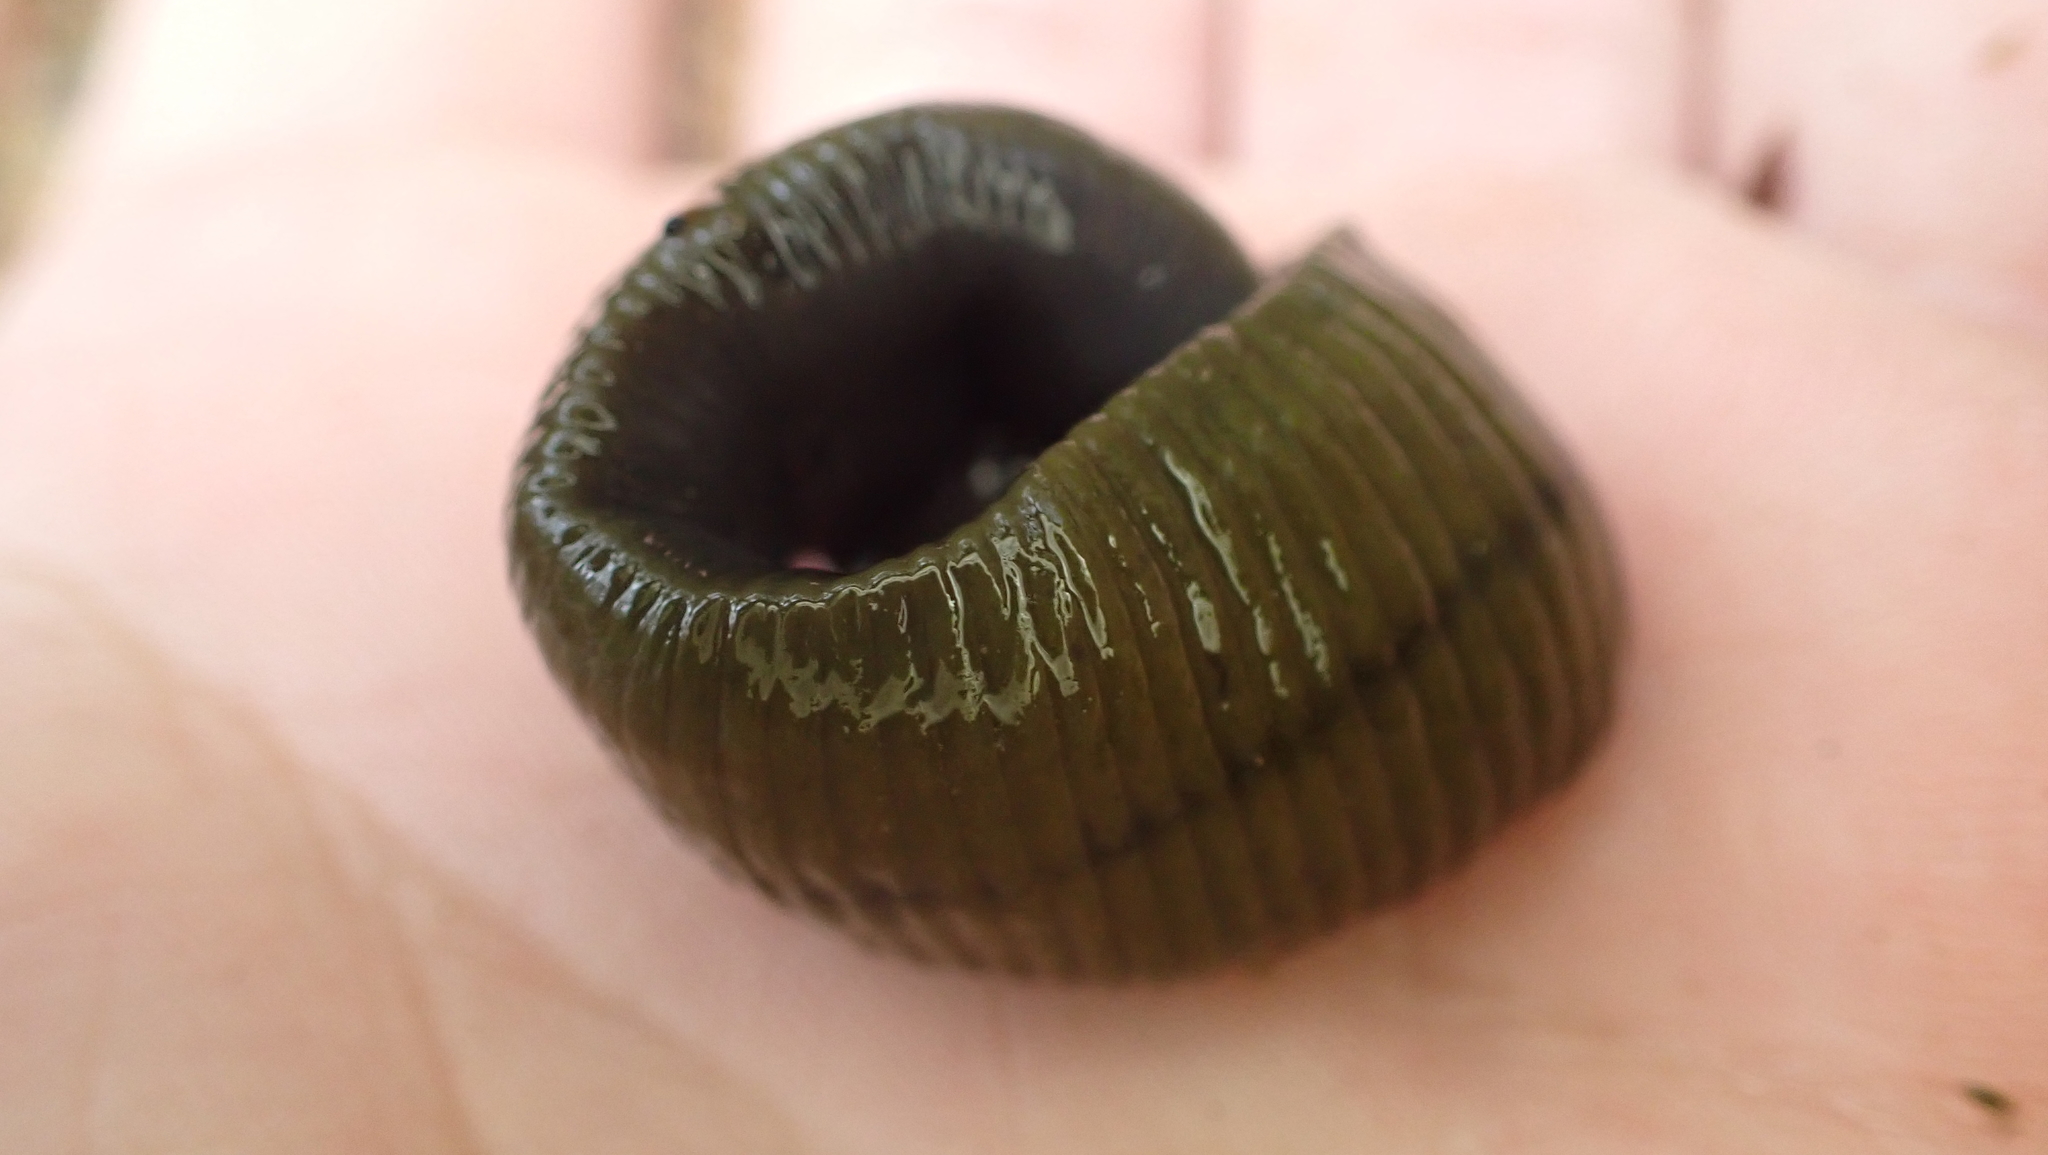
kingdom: Animalia
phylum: Annelida
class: Clitellata
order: Arhynchobdellida
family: Haemopidae
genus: Haemopis
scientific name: Haemopis sanguisuga
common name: Horse leech
